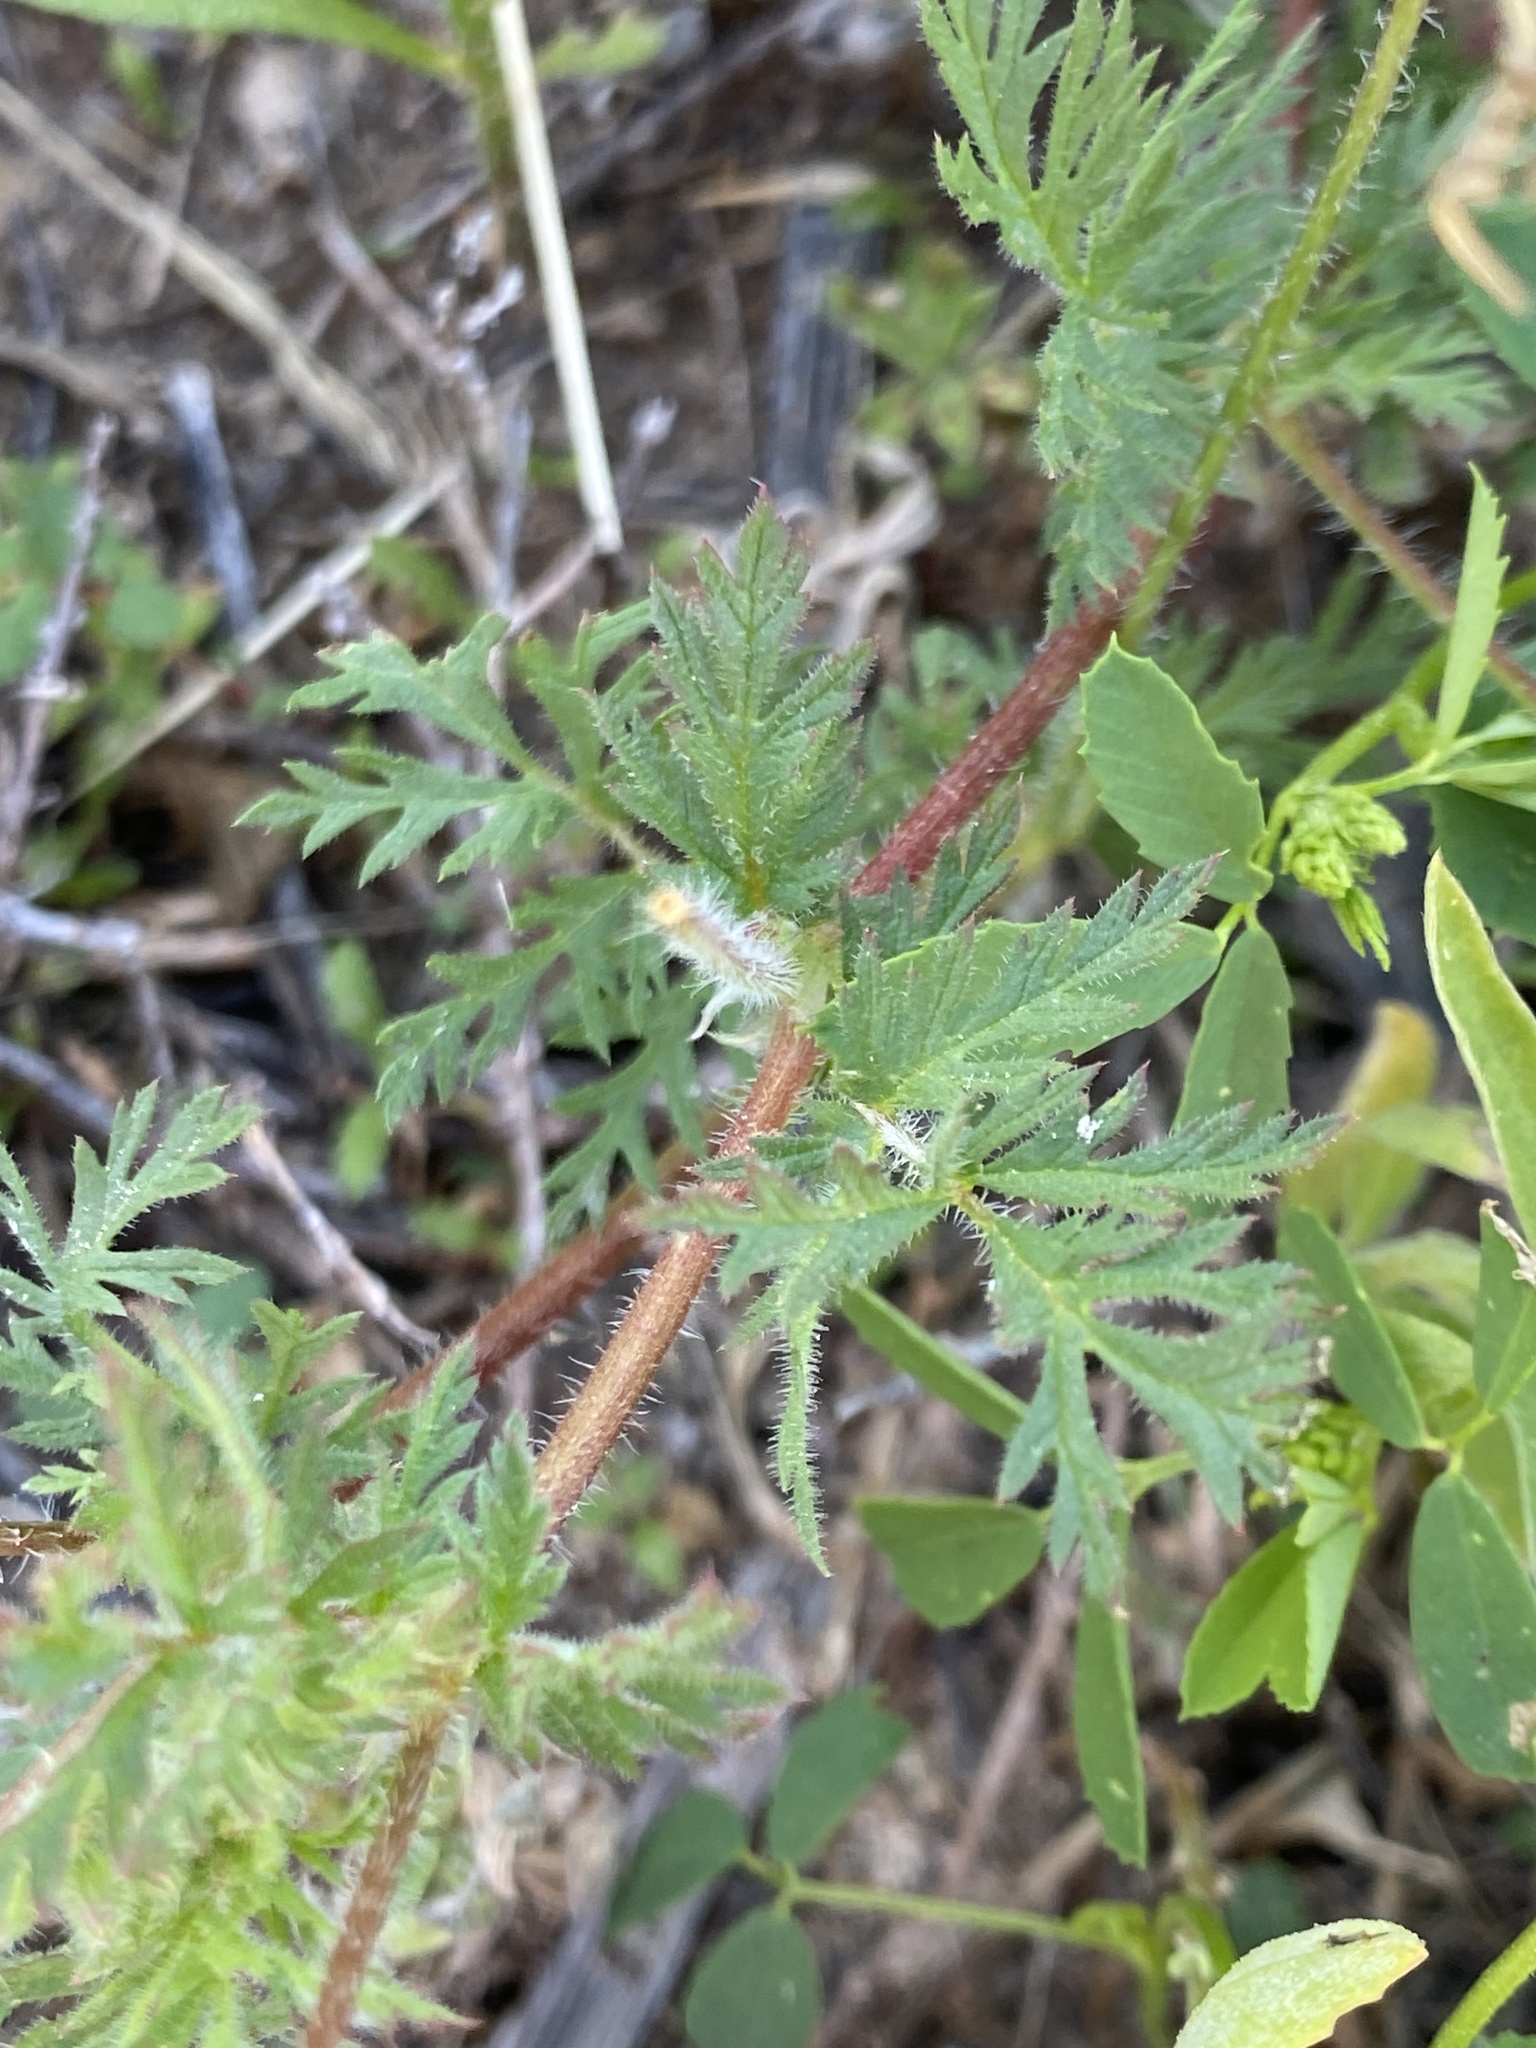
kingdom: Plantae
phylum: Tracheophyta
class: Magnoliopsida
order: Geraniales
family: Geraniaceae
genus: Erodium
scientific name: Erodium cicutarium
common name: Common stork's-bill
